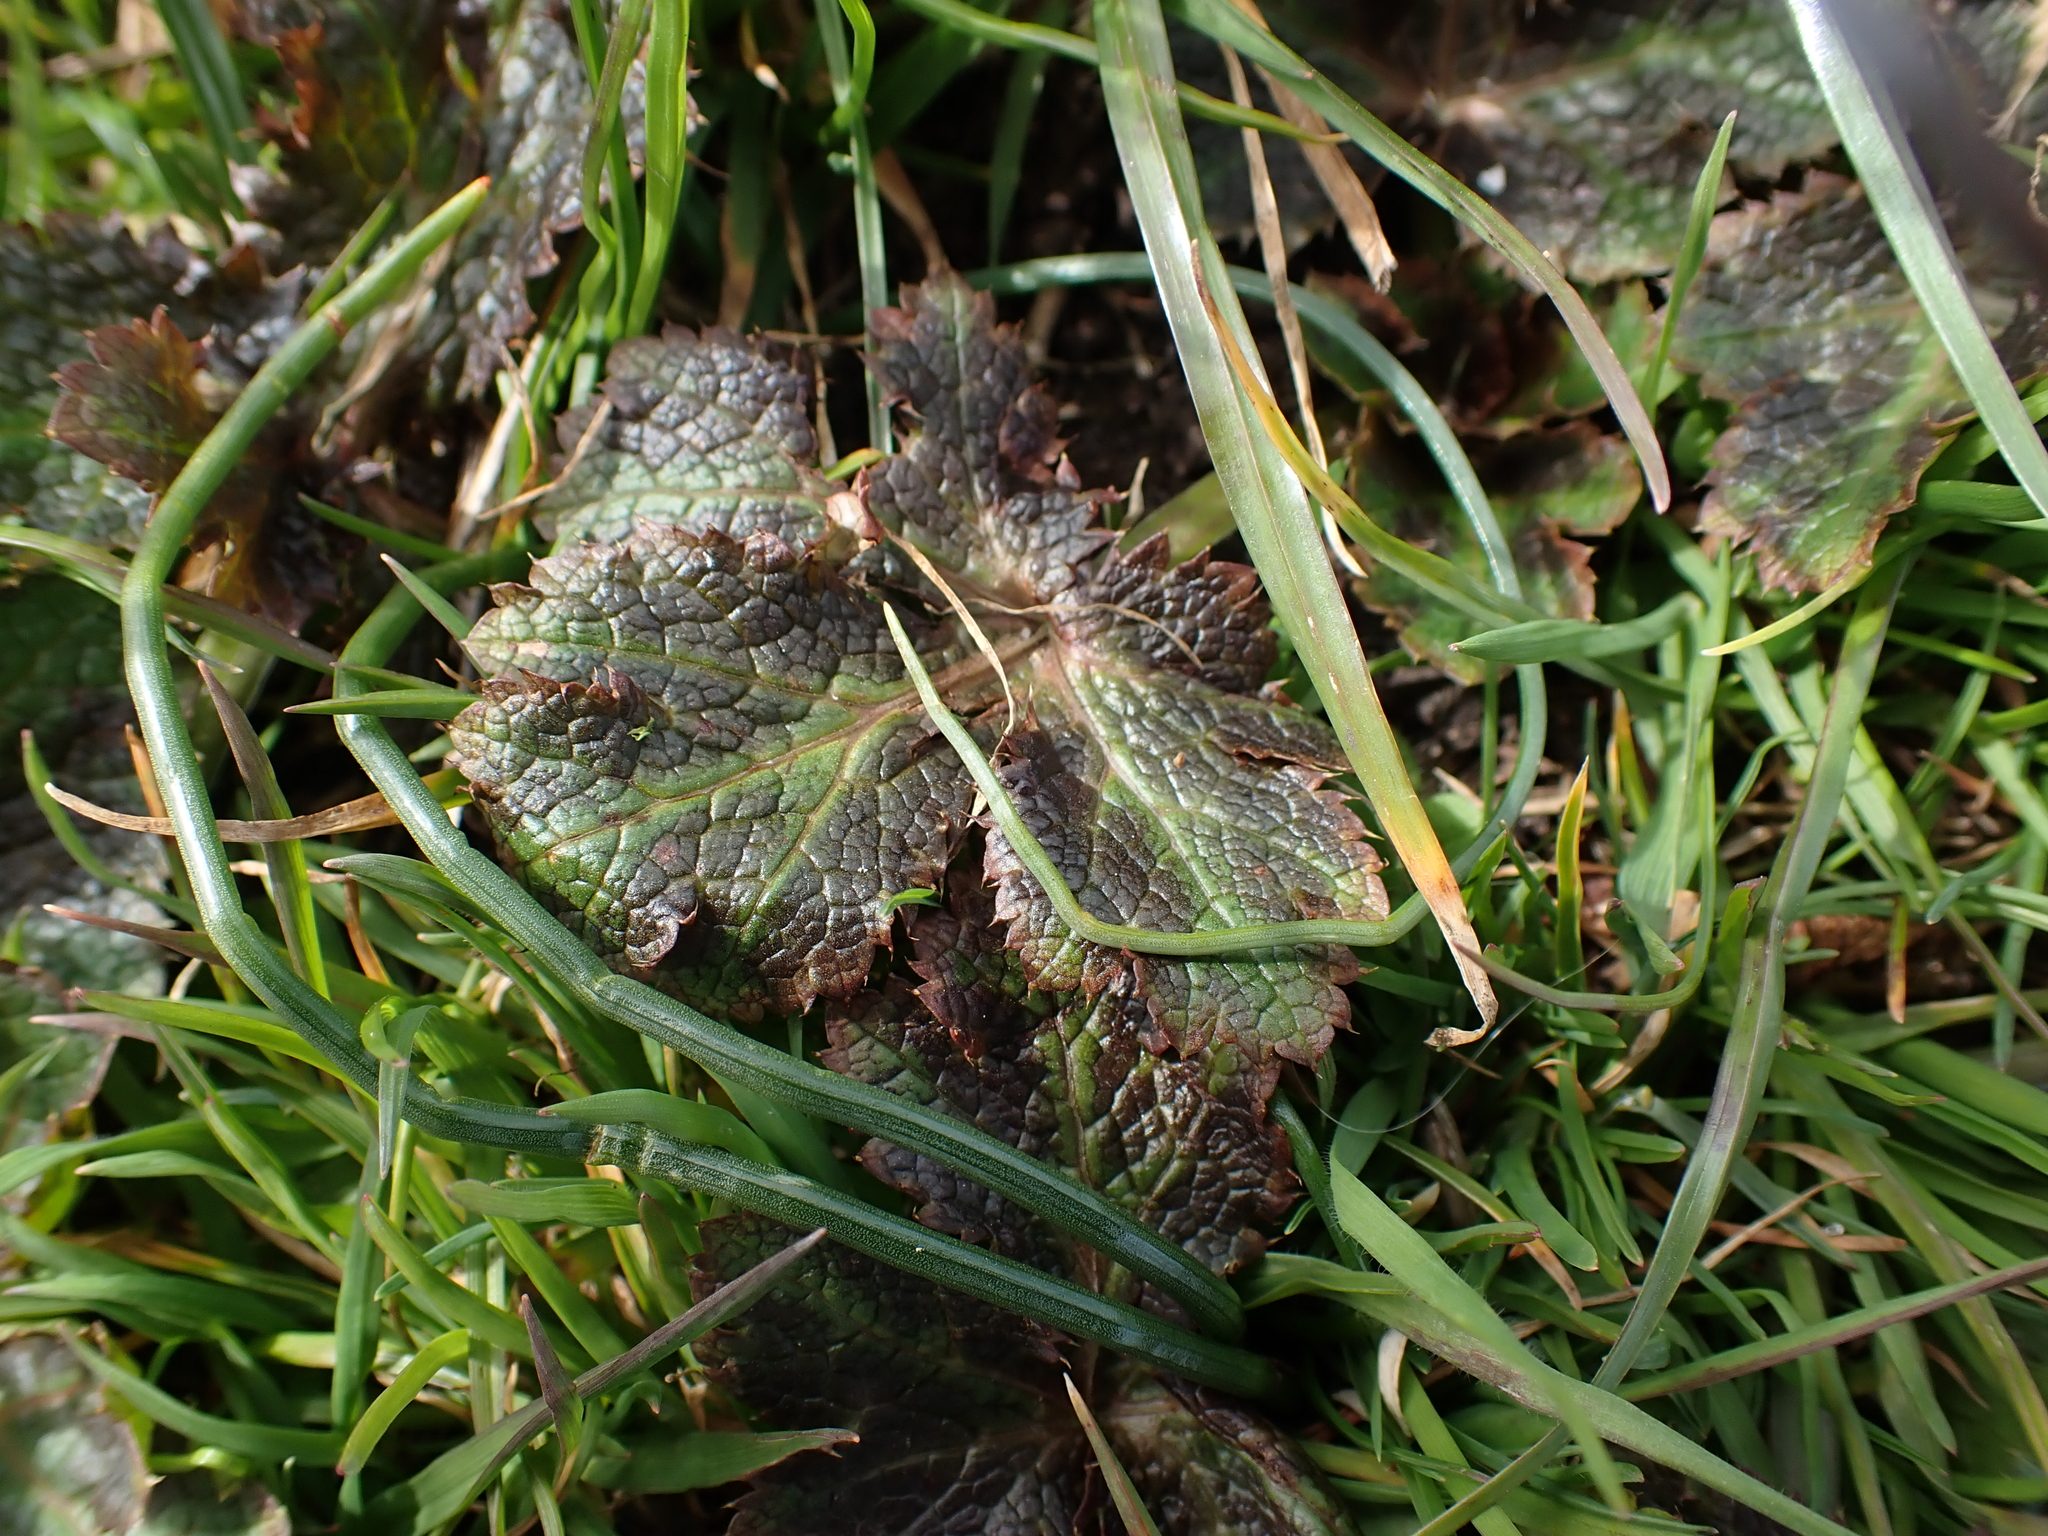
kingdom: Plantae
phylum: Tracheophyta
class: Magnoliopsida
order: Apiales
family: Apiaceae
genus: Sanicula
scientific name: Sanicula crassicaulis
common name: Western snakeroot
